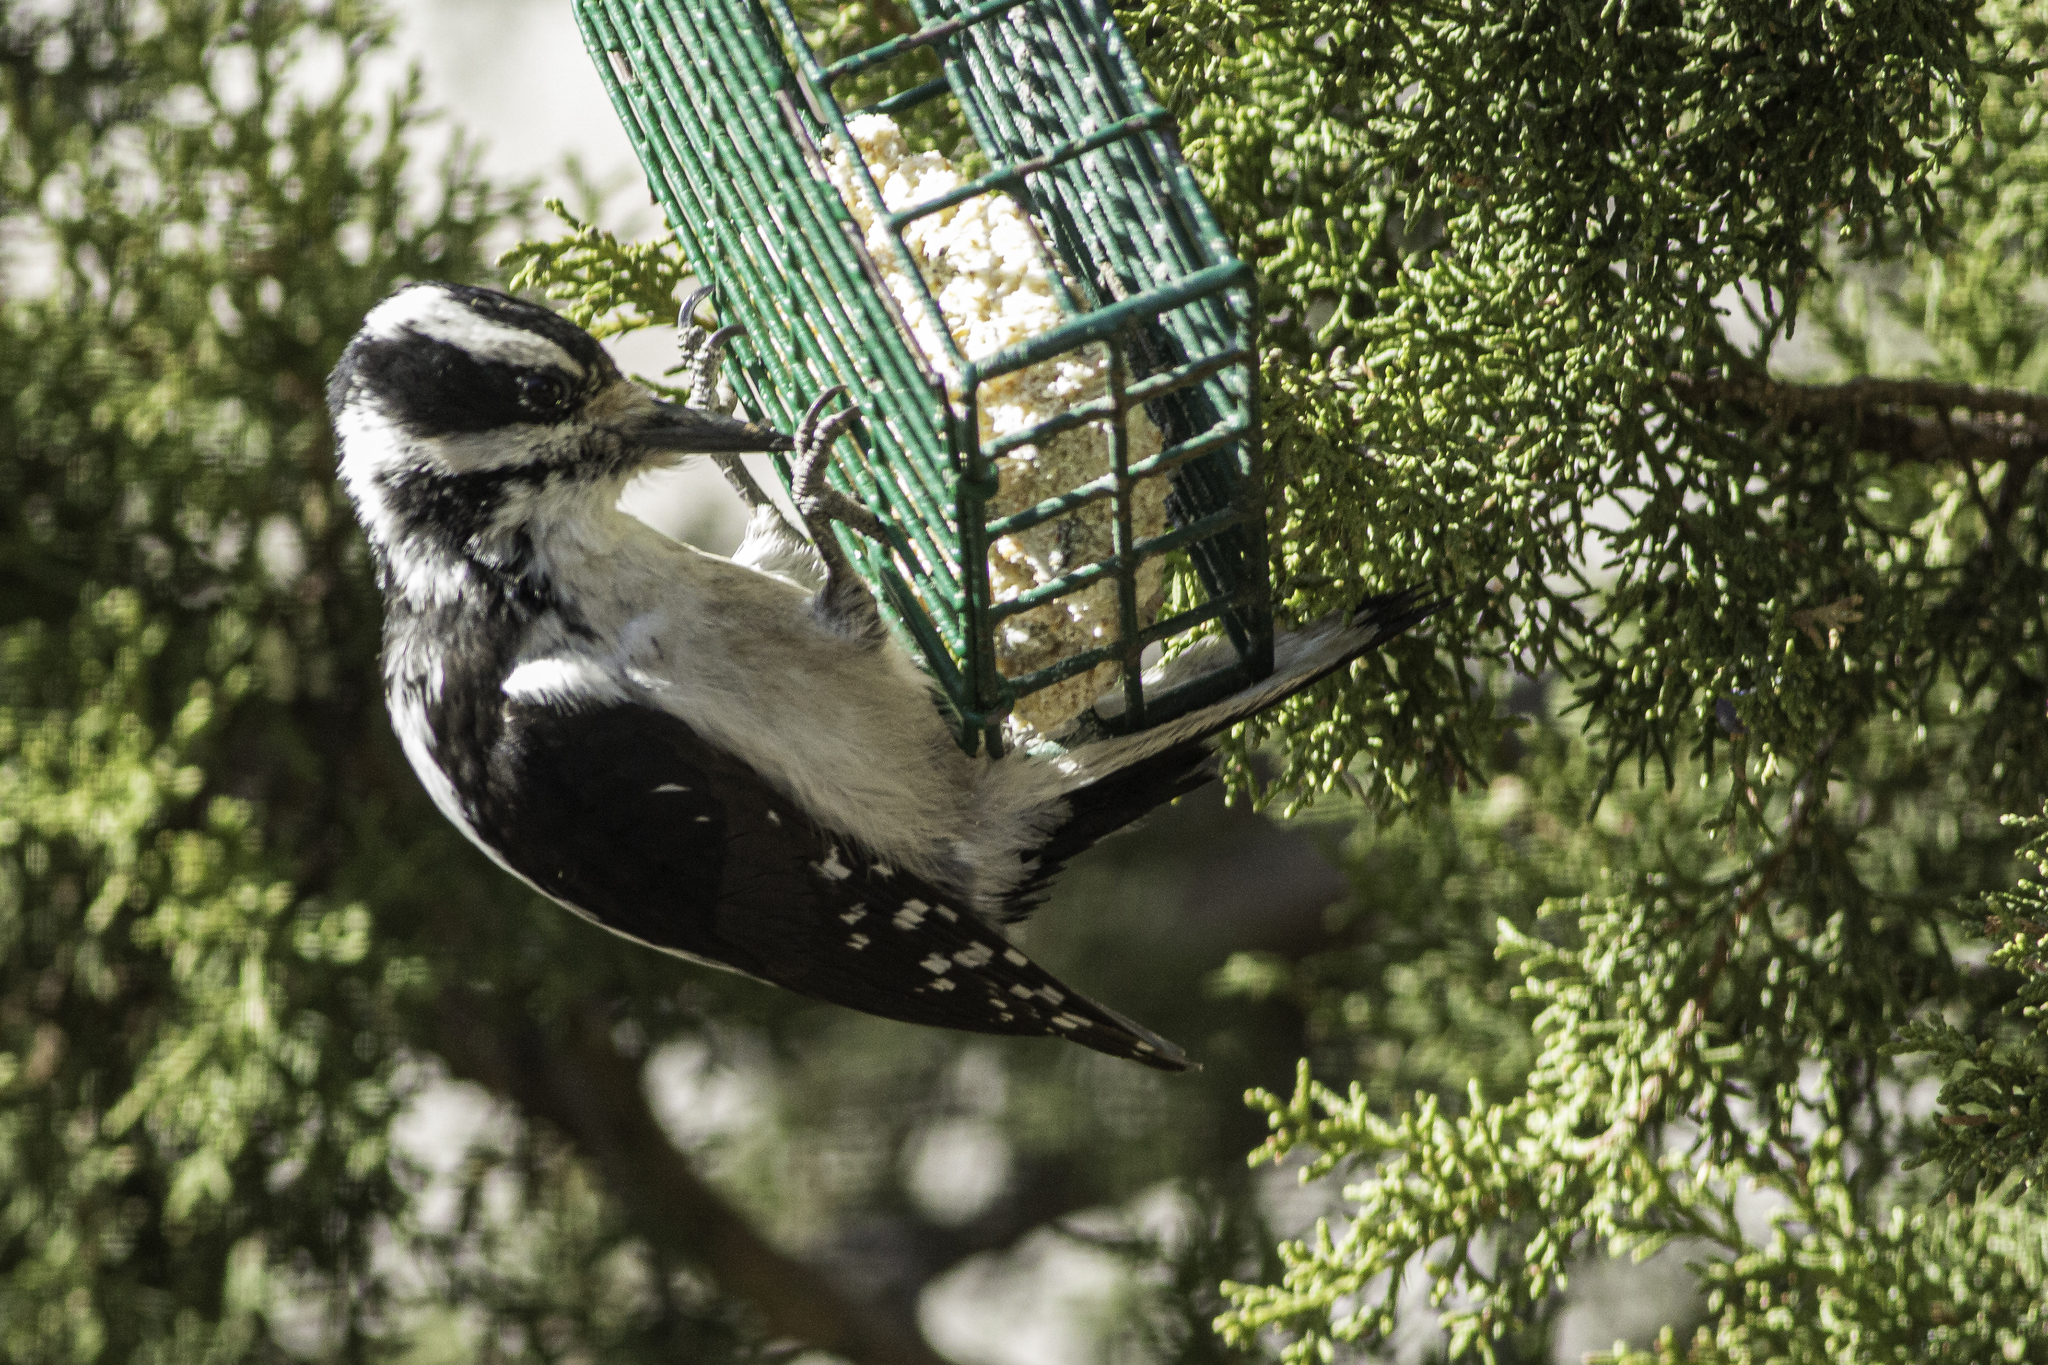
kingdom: Animalia
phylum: Chordata
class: Aves
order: Piciformes
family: Picidae
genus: Leuconotopicus
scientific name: Leuconotopicus villosus
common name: Hairy woodpecker
